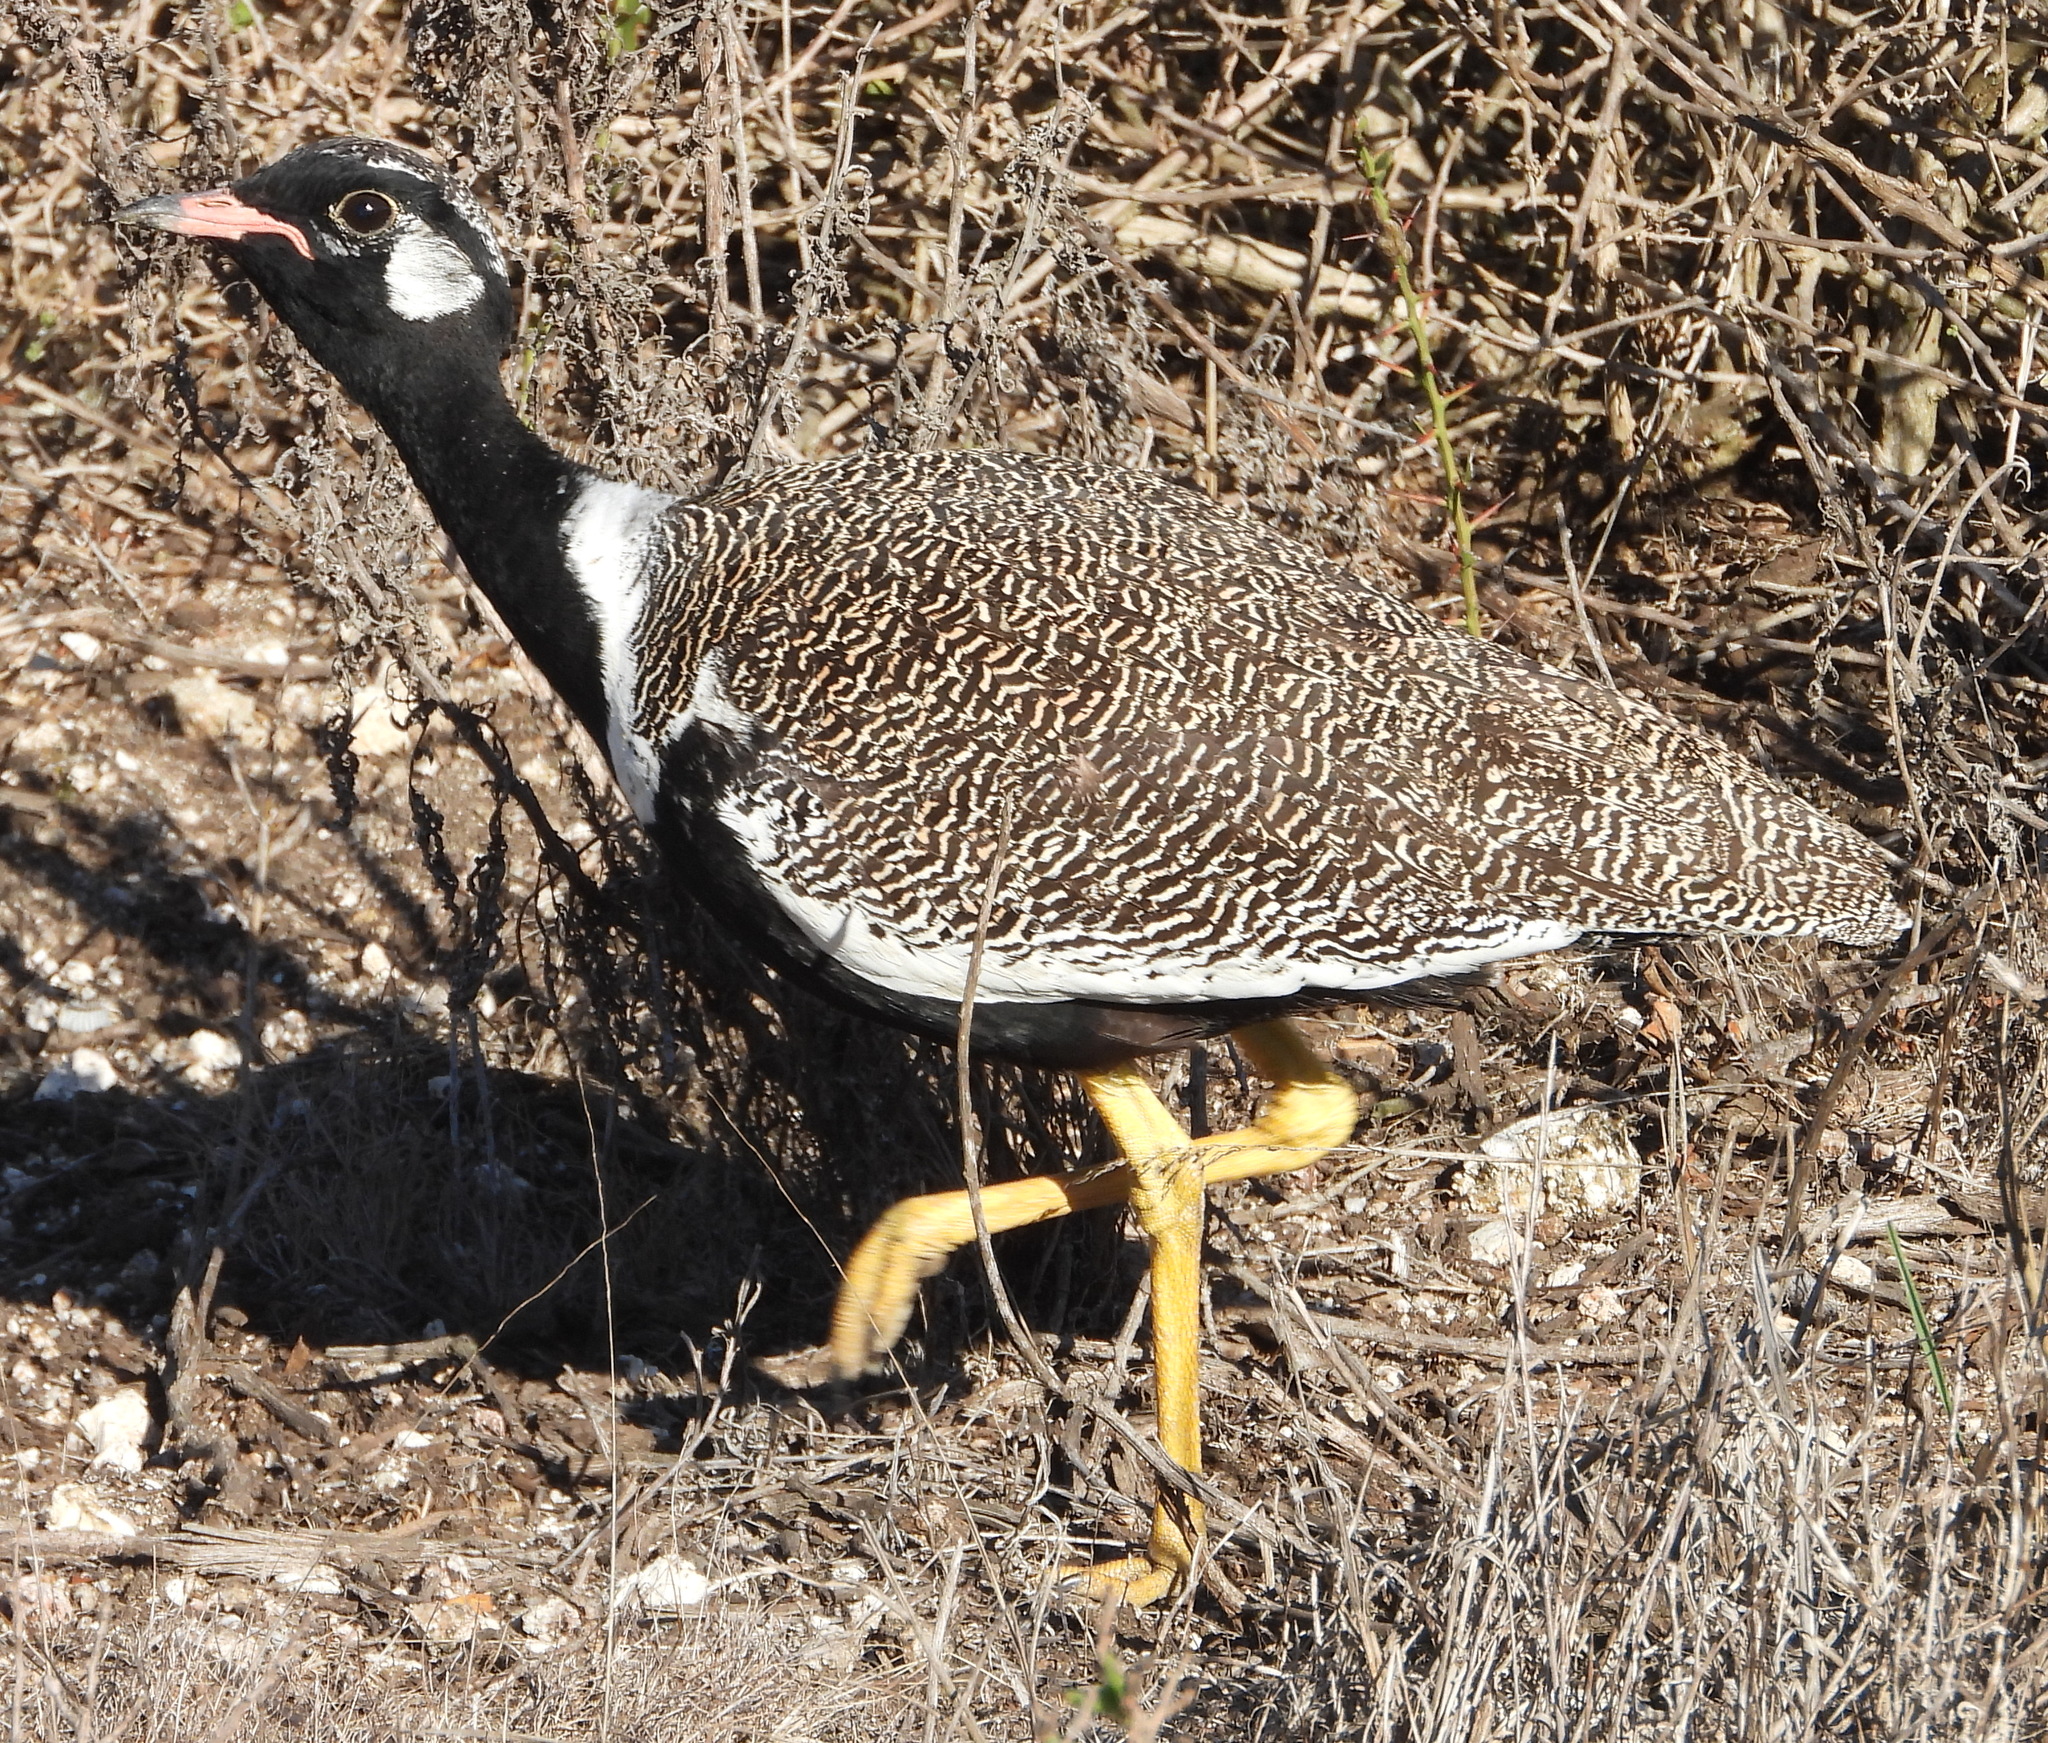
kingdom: Animalia
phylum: Chordata
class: Aves
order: Otidiformes
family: Otididae
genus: Afrotis
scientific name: Afrotis afra
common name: Southern black korhaan
